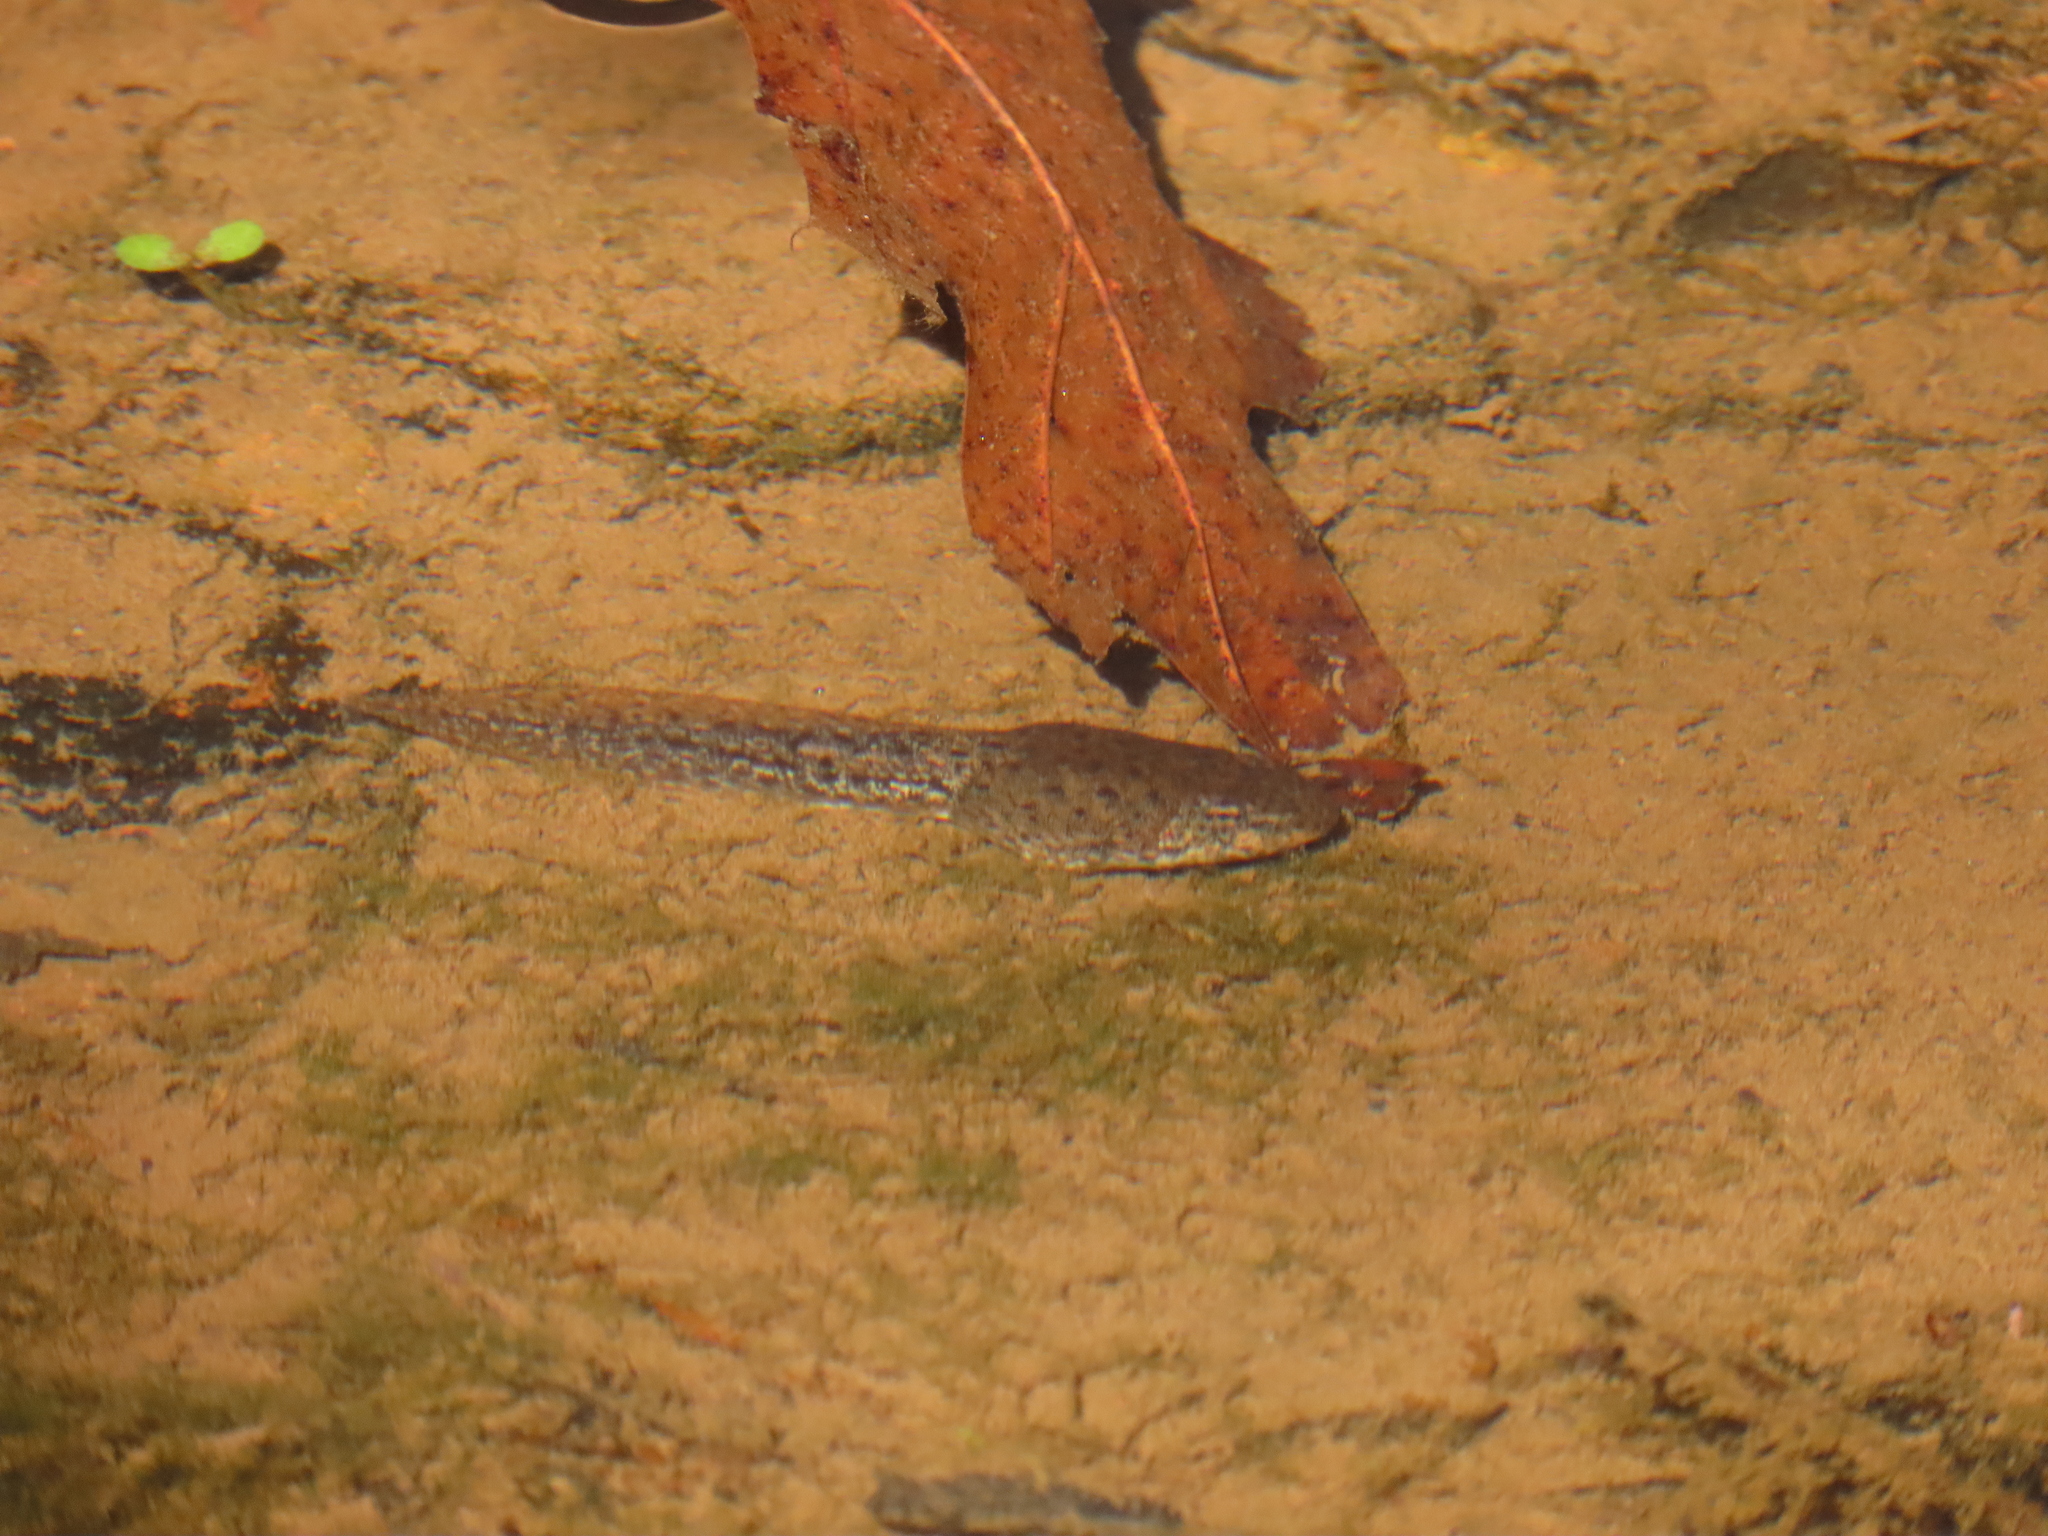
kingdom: Animalia
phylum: Chordata
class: Amphibia
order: Anura
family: Ranidae
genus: Lithobates
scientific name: Lithobates clamitans
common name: Green frog
